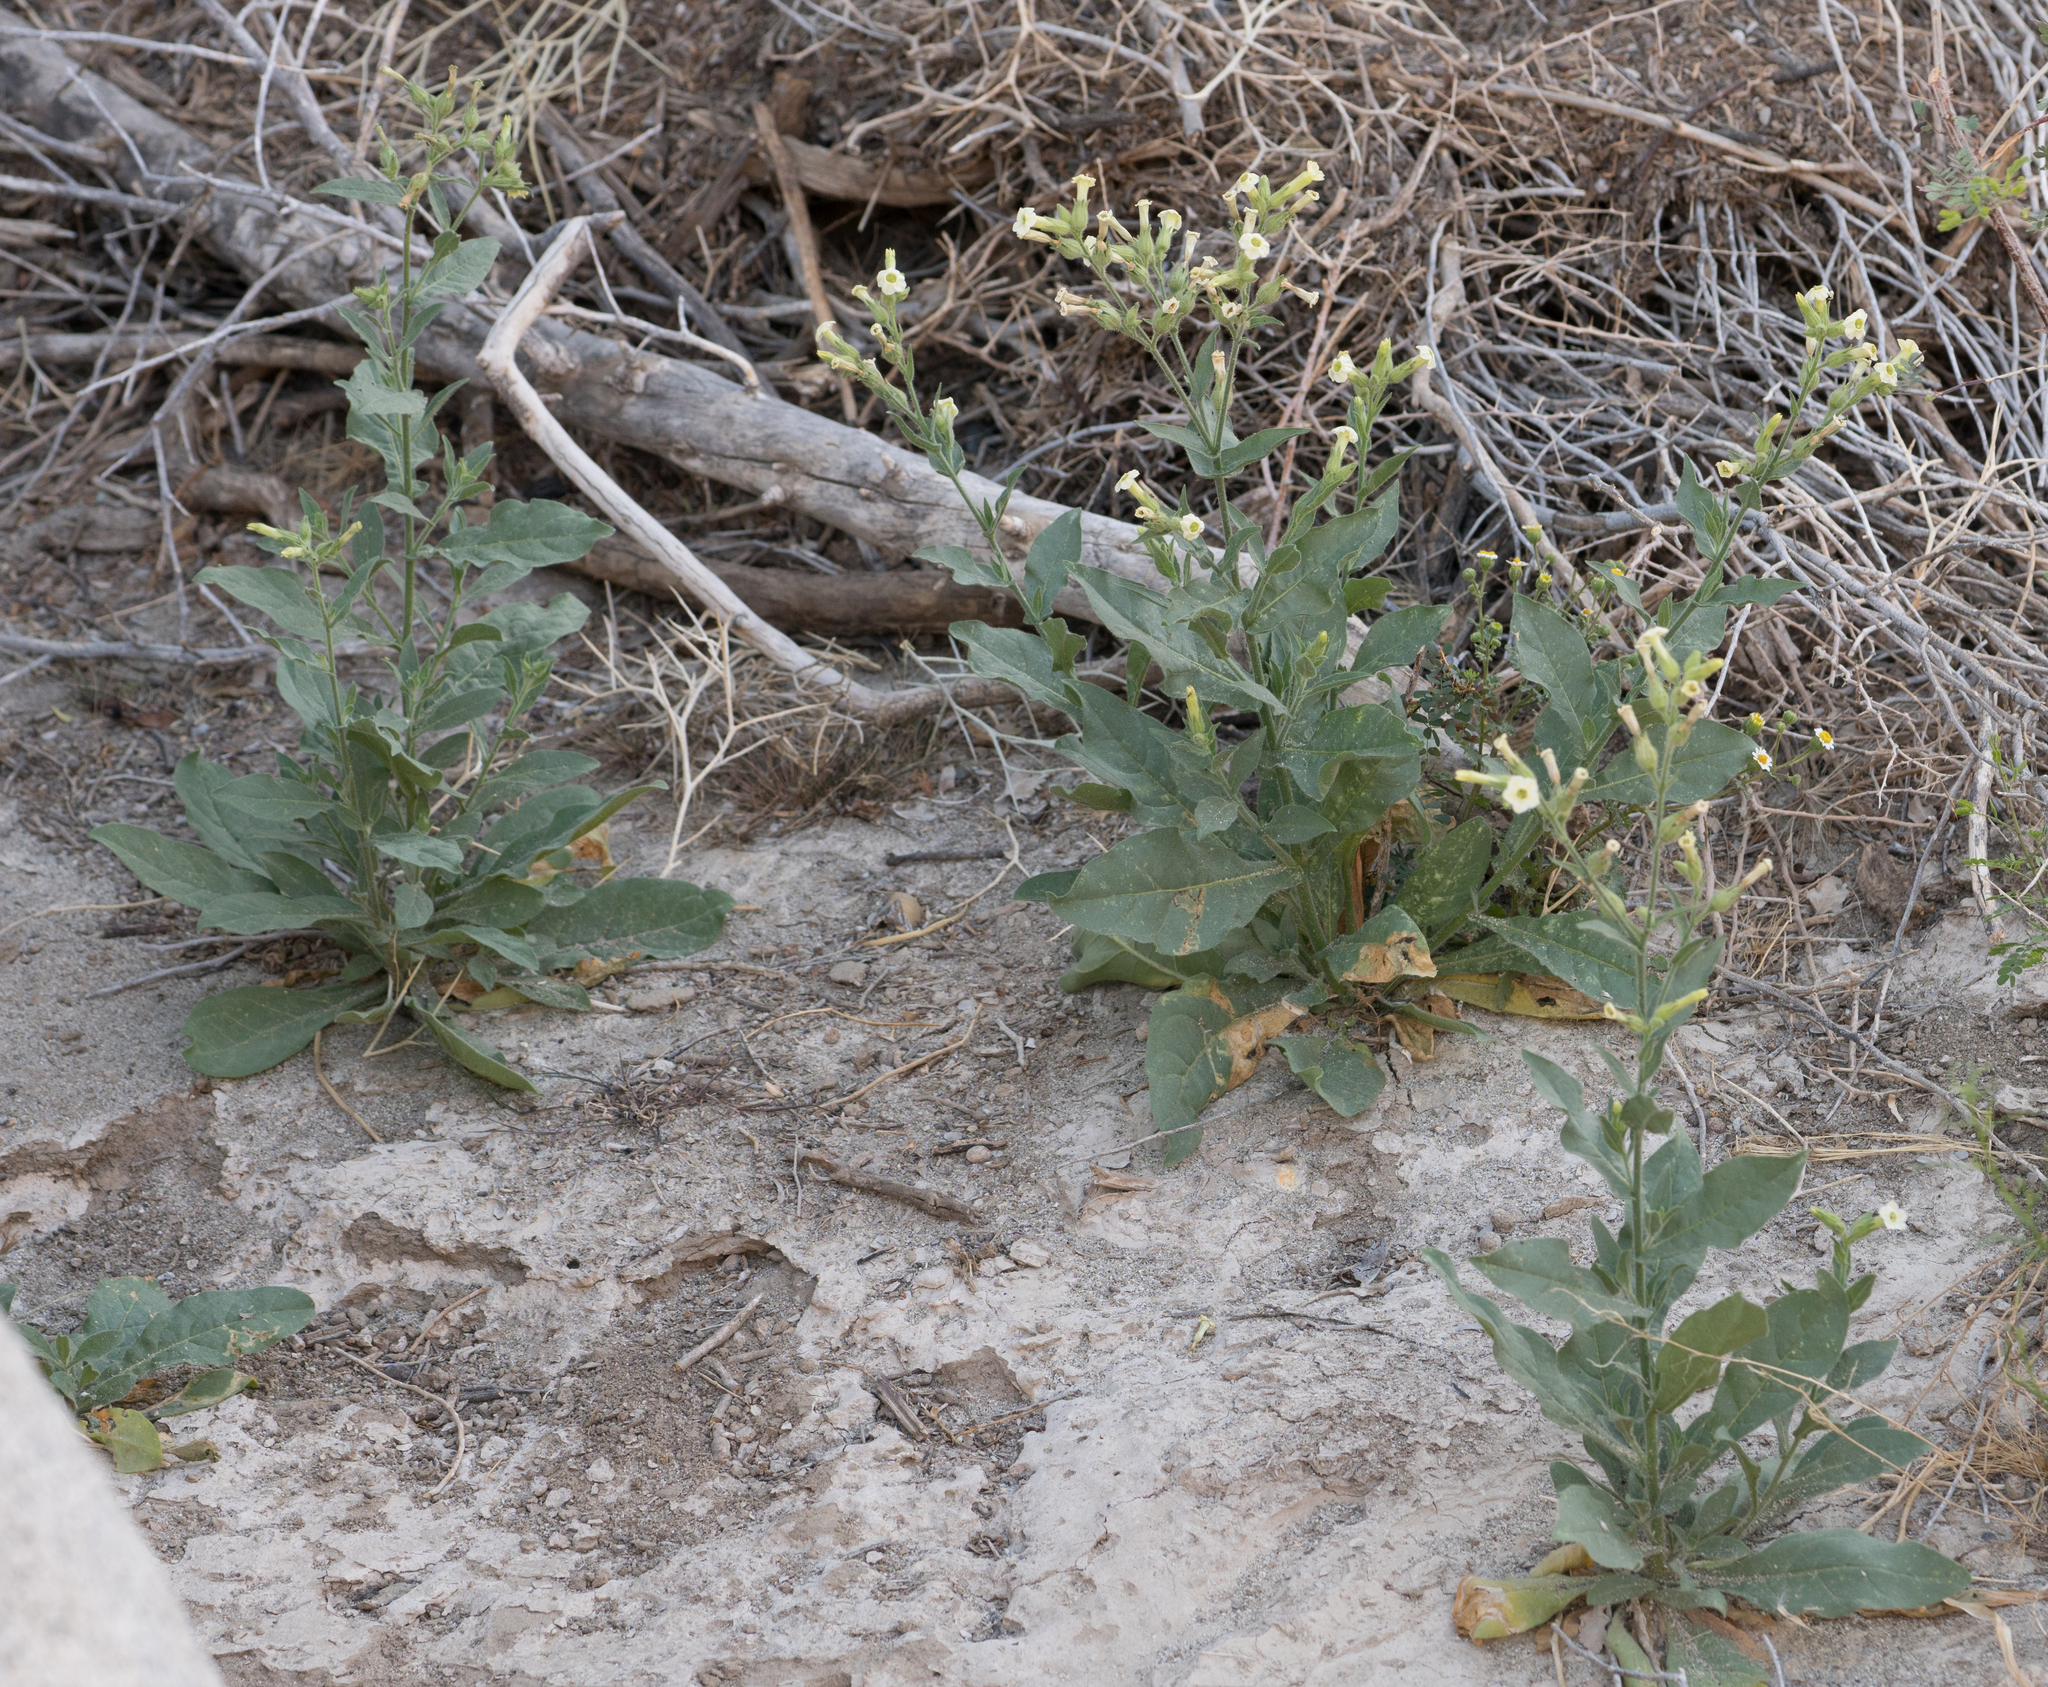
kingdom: Plantae
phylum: Tracheophyta
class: Magnoliopsida
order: Solanales
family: Solanaceae
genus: Nicotiana
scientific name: Nicotiana obtusifolia
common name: Desert tobacco
